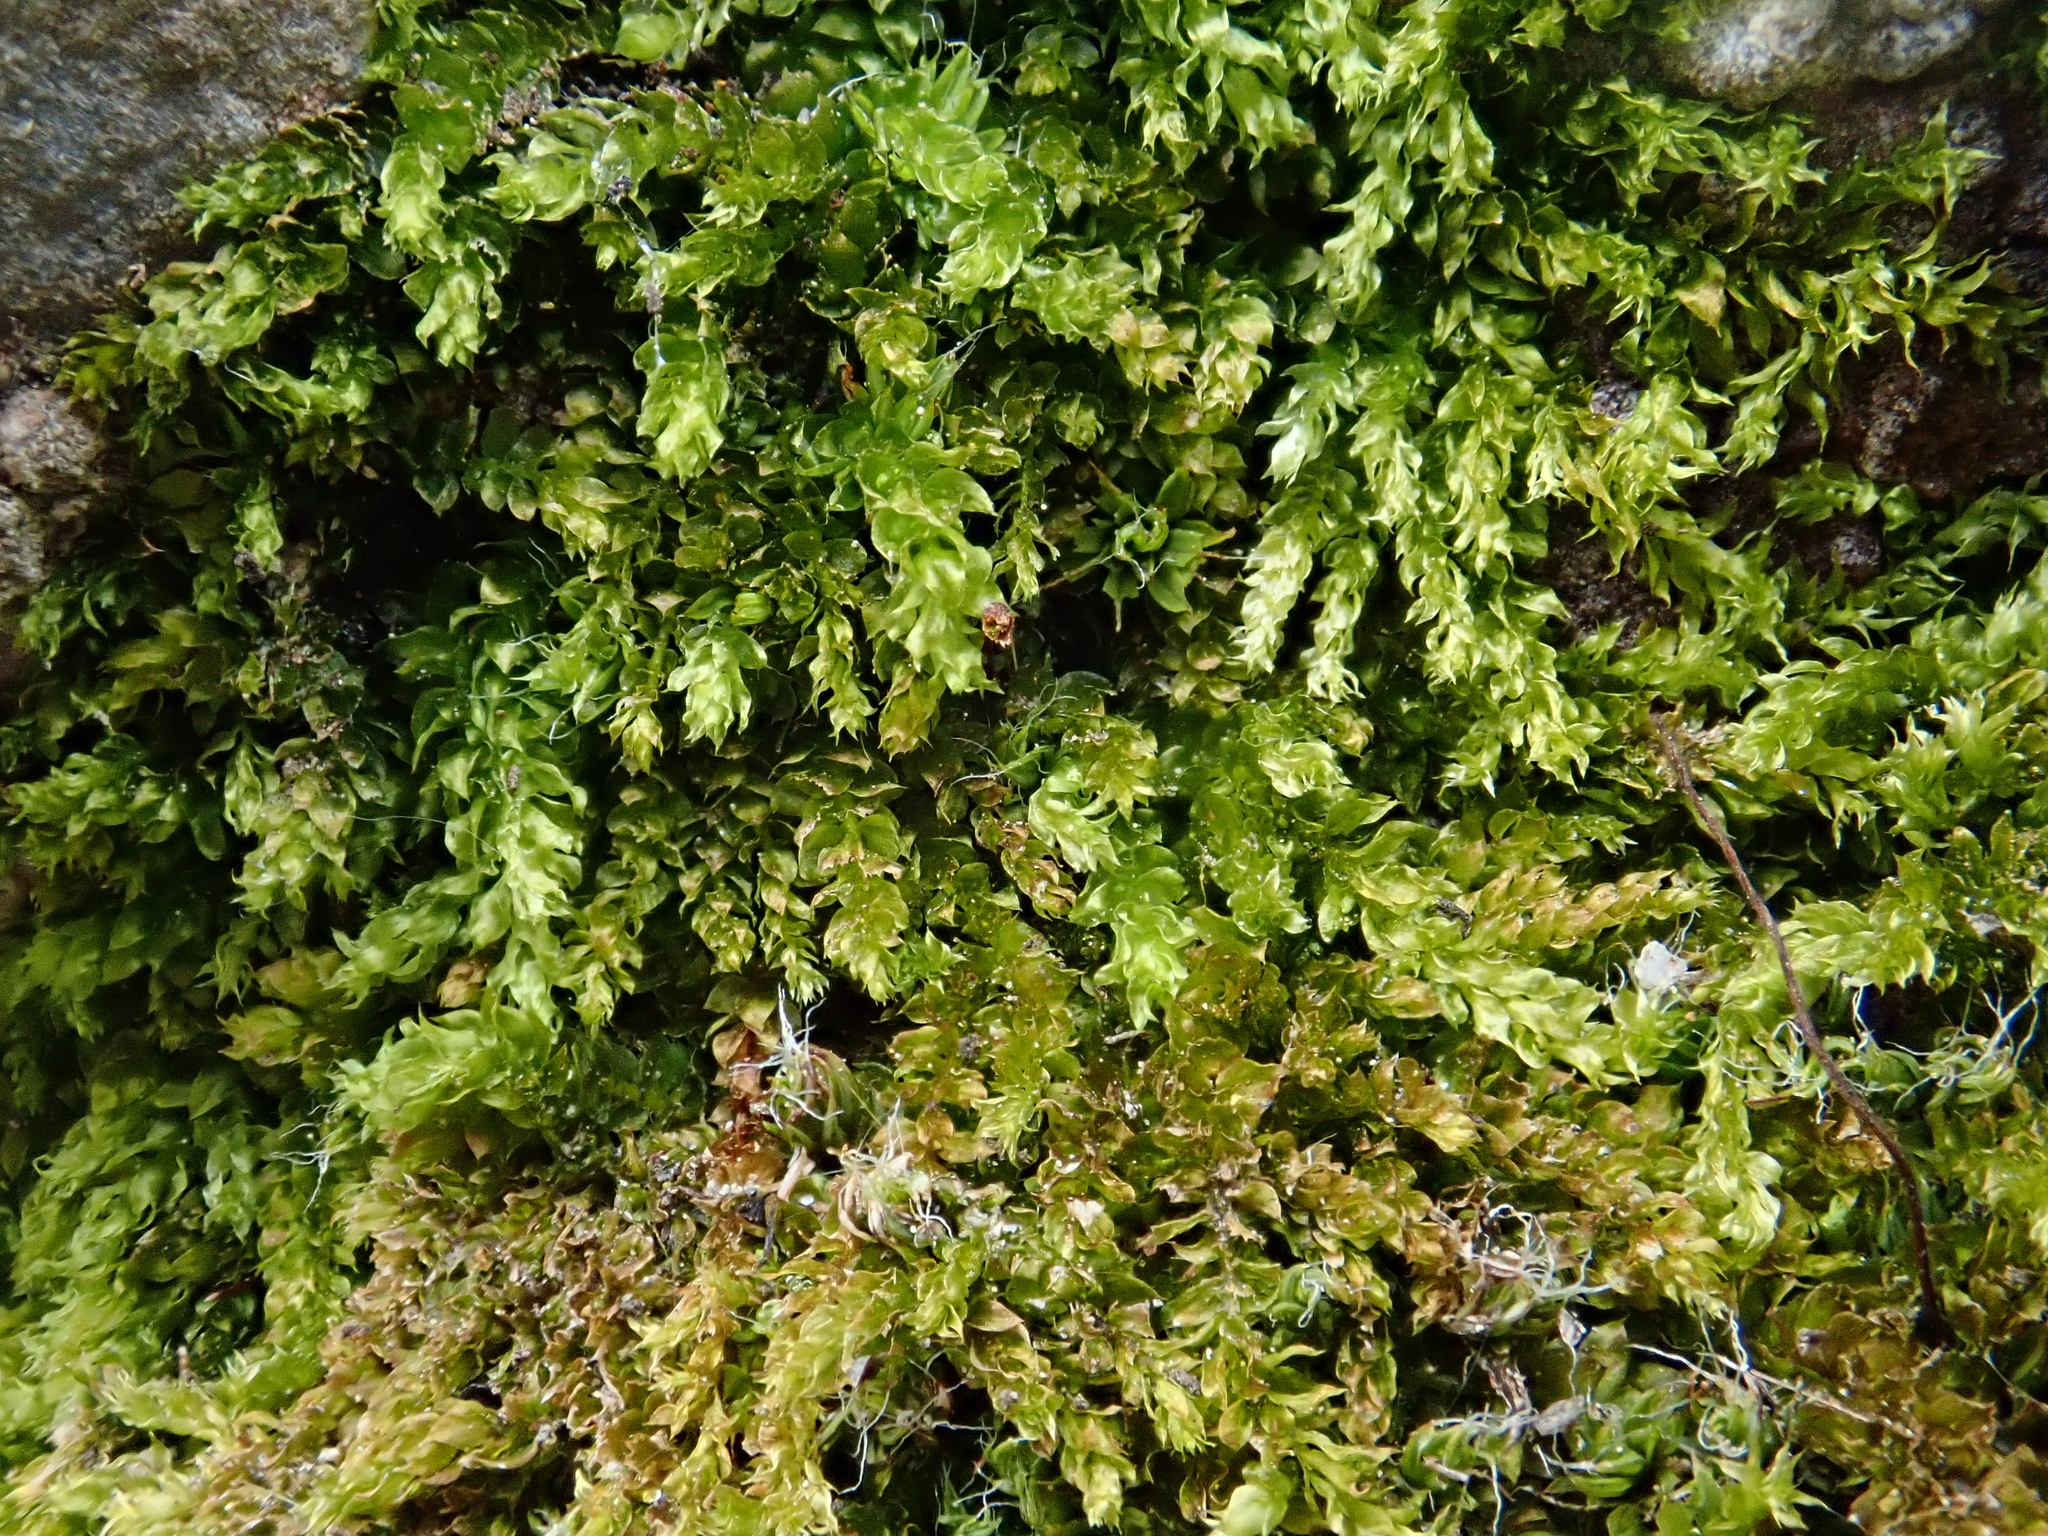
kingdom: Plantae
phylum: Bryophyta
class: Bryopsida
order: Hypnales
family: Brachytheciaceae
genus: Rhynchostegium
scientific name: Rhynchostegium rotundifolium
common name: Round-leaved feather-moss
